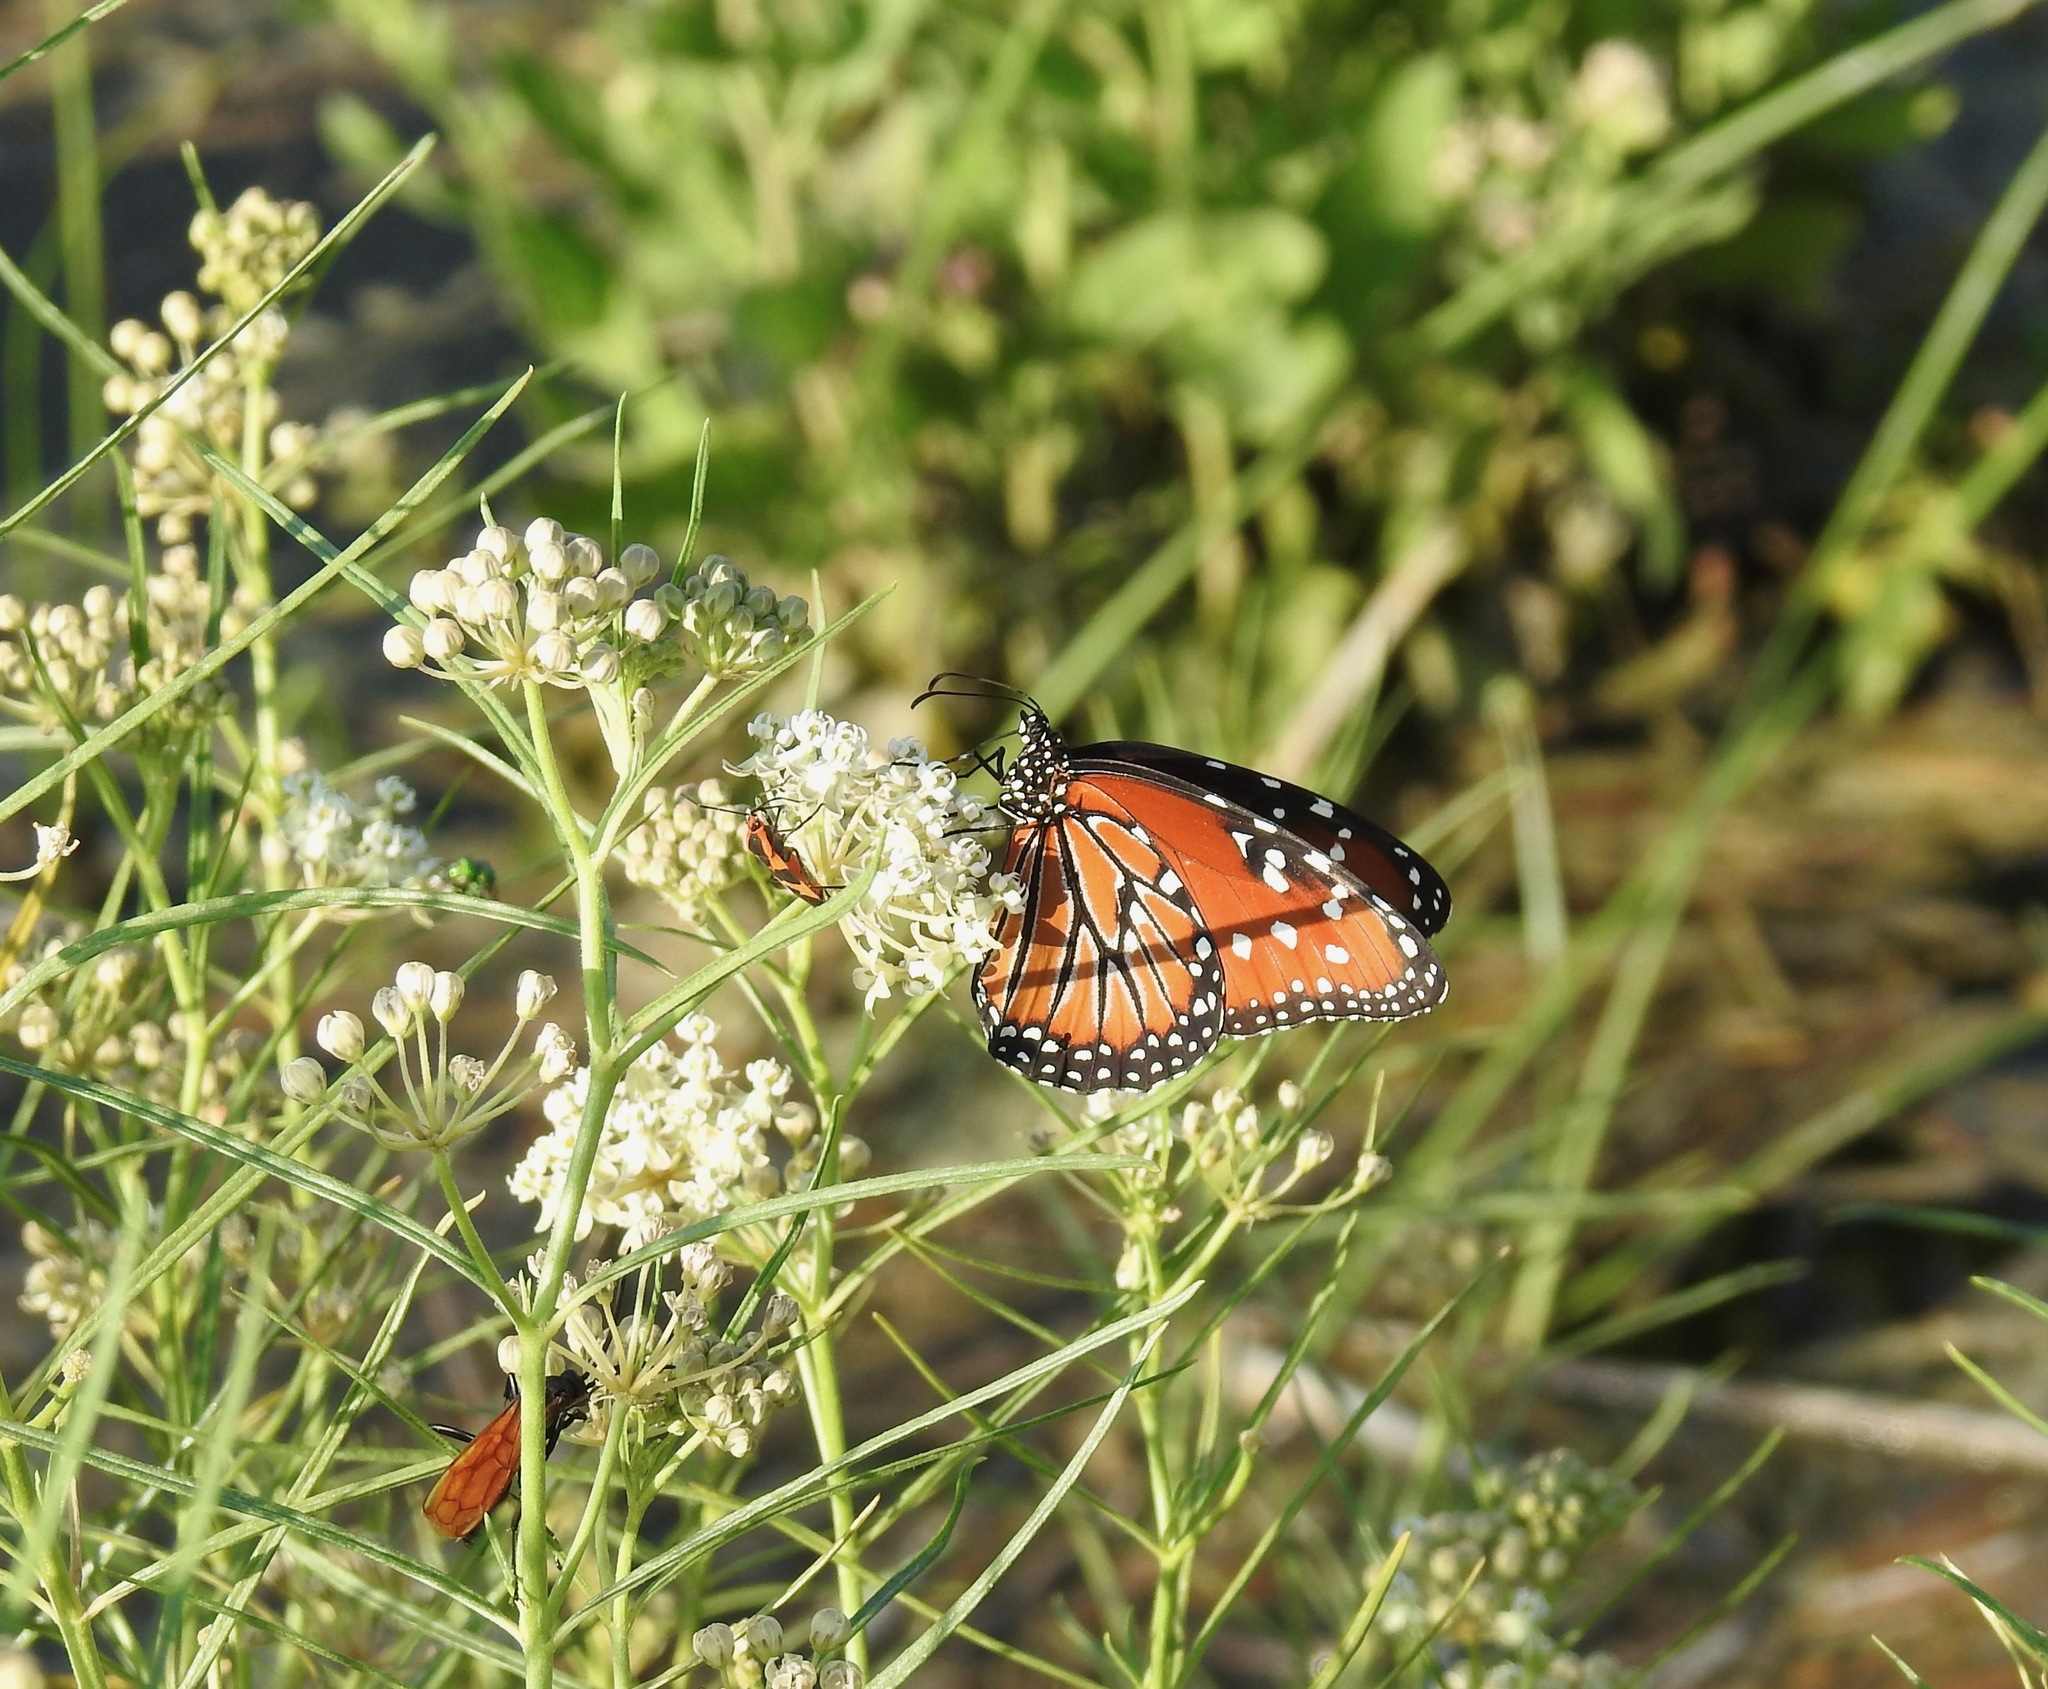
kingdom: Animalia
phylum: Arthropoda
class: Insecta
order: Lepidoptera
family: Nymphalidae
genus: Danaus
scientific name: Danaus gilippus
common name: Queen
